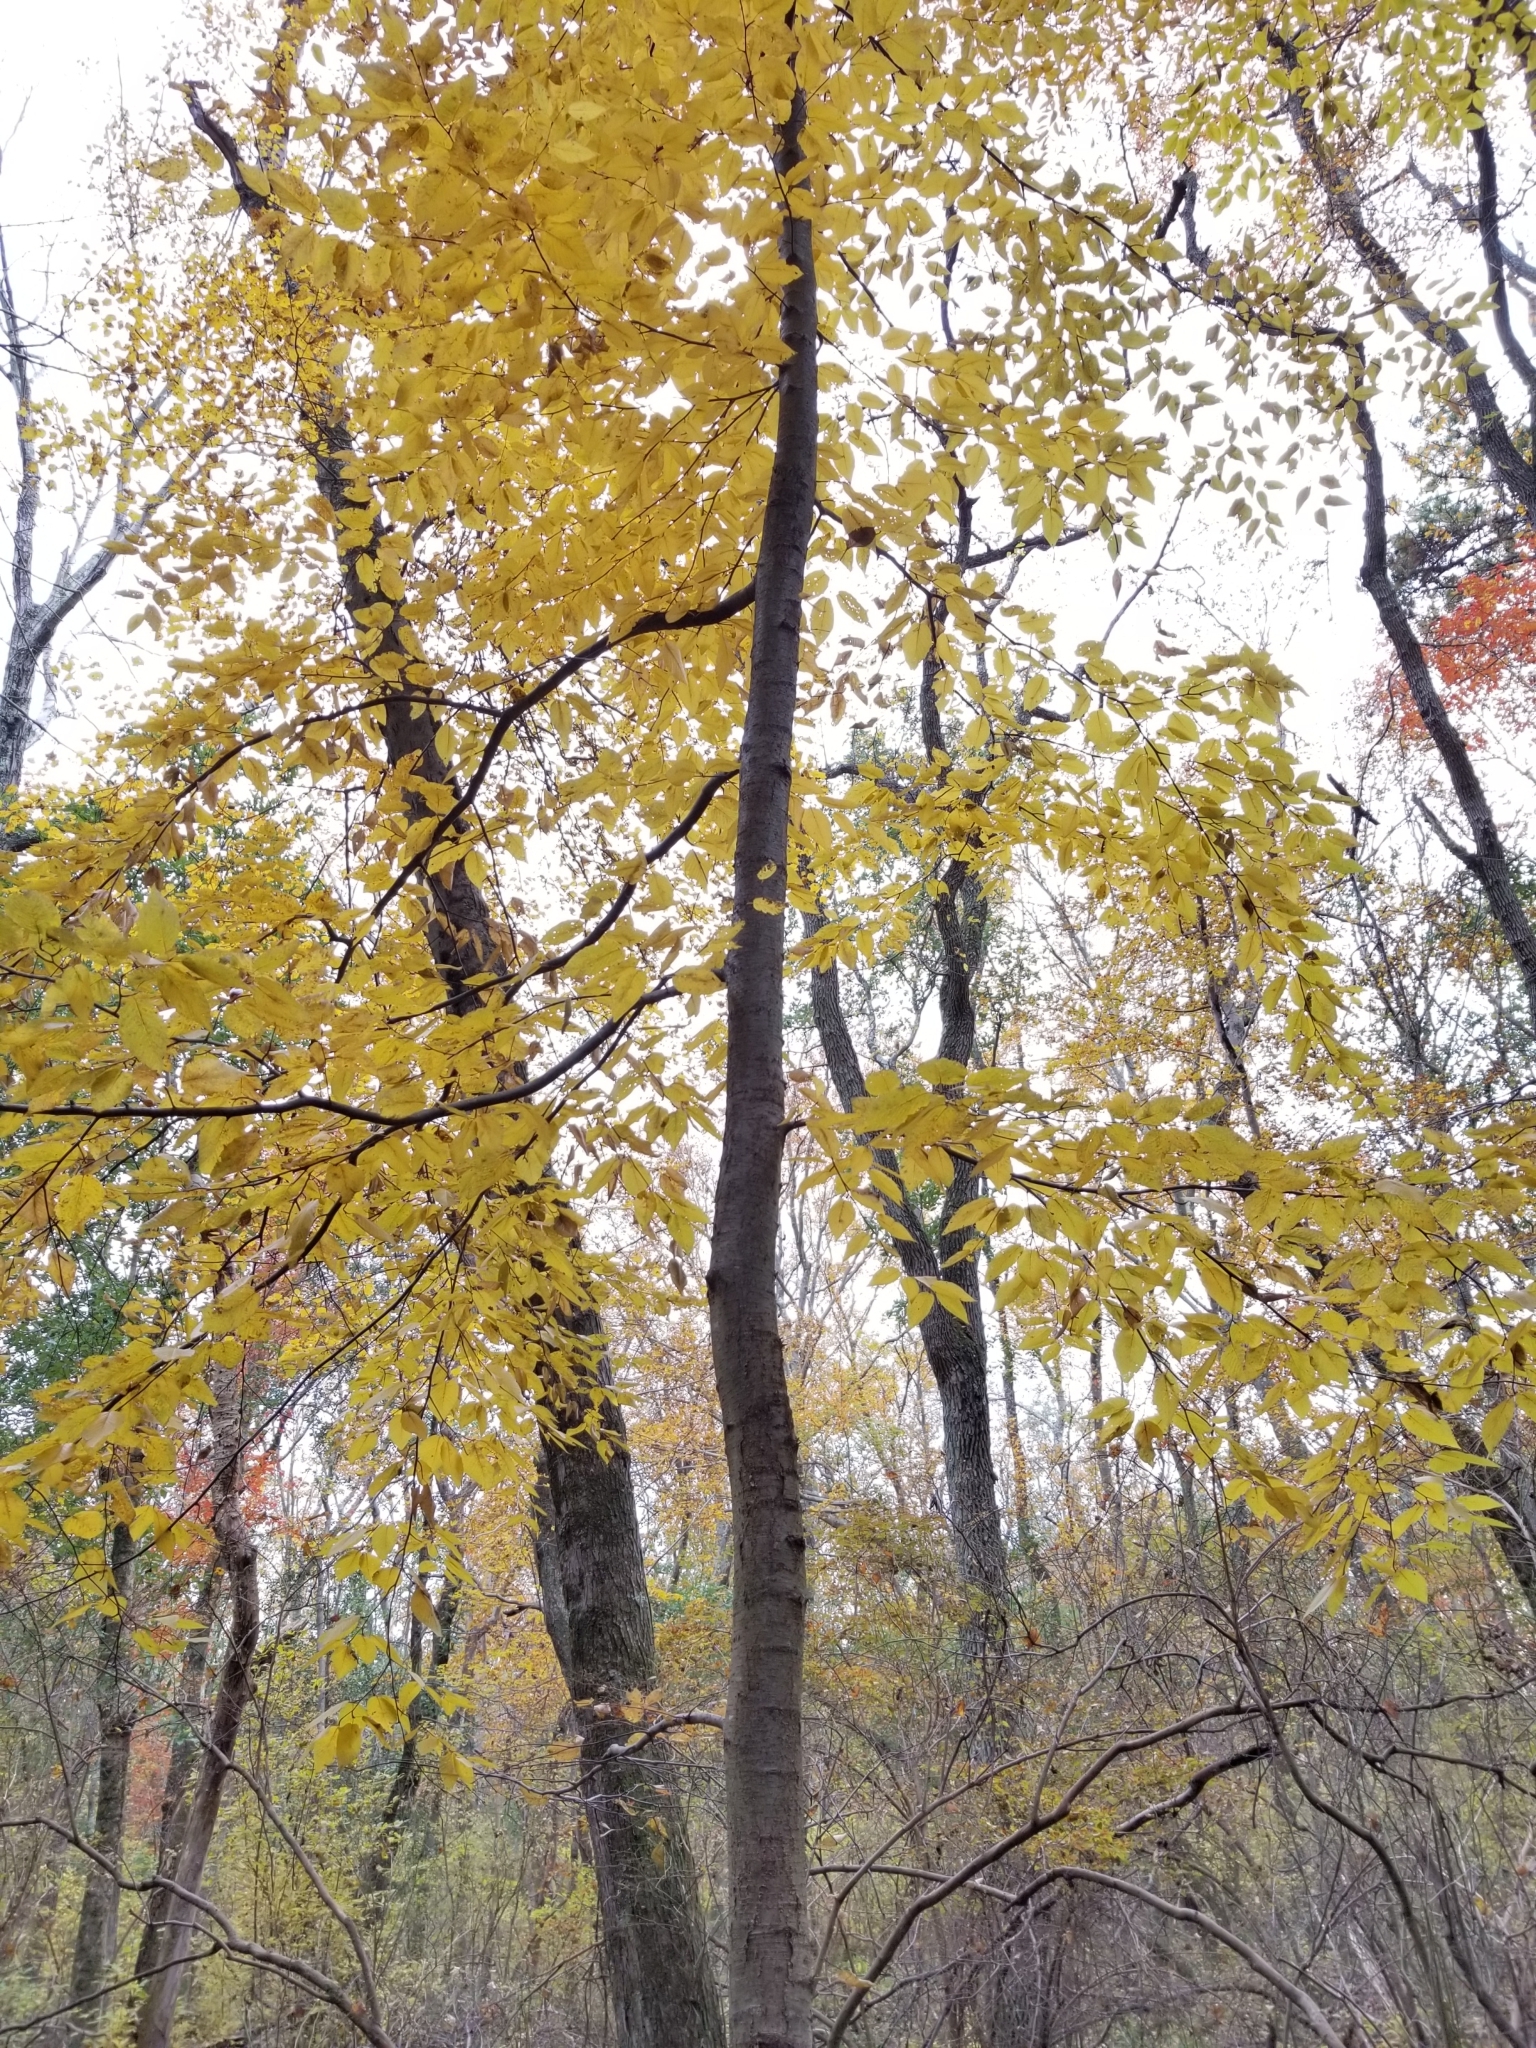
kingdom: Plantae
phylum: Tracheophyta
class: Magnoliopsida
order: Fagales
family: Betulaceae
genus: Betula
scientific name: Betula lenta
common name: Black birch
